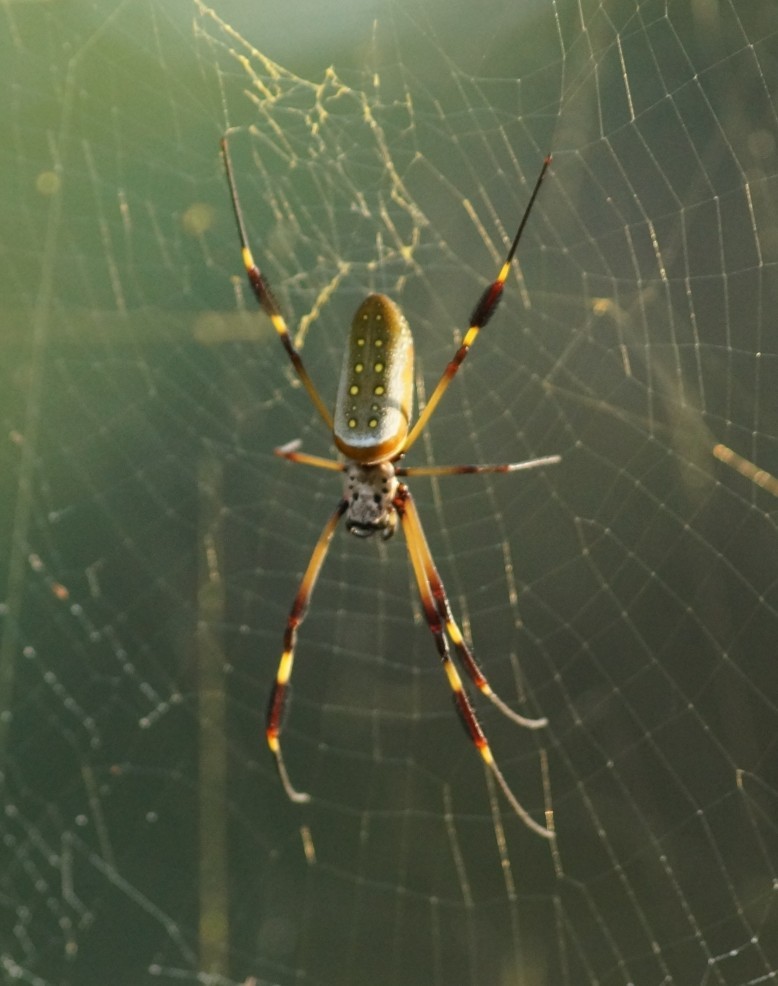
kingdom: Animalia
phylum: Arthropoda
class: Arachnida
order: Araneae
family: Araneidae
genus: Trichonephila
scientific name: Trichonephila clavipes
